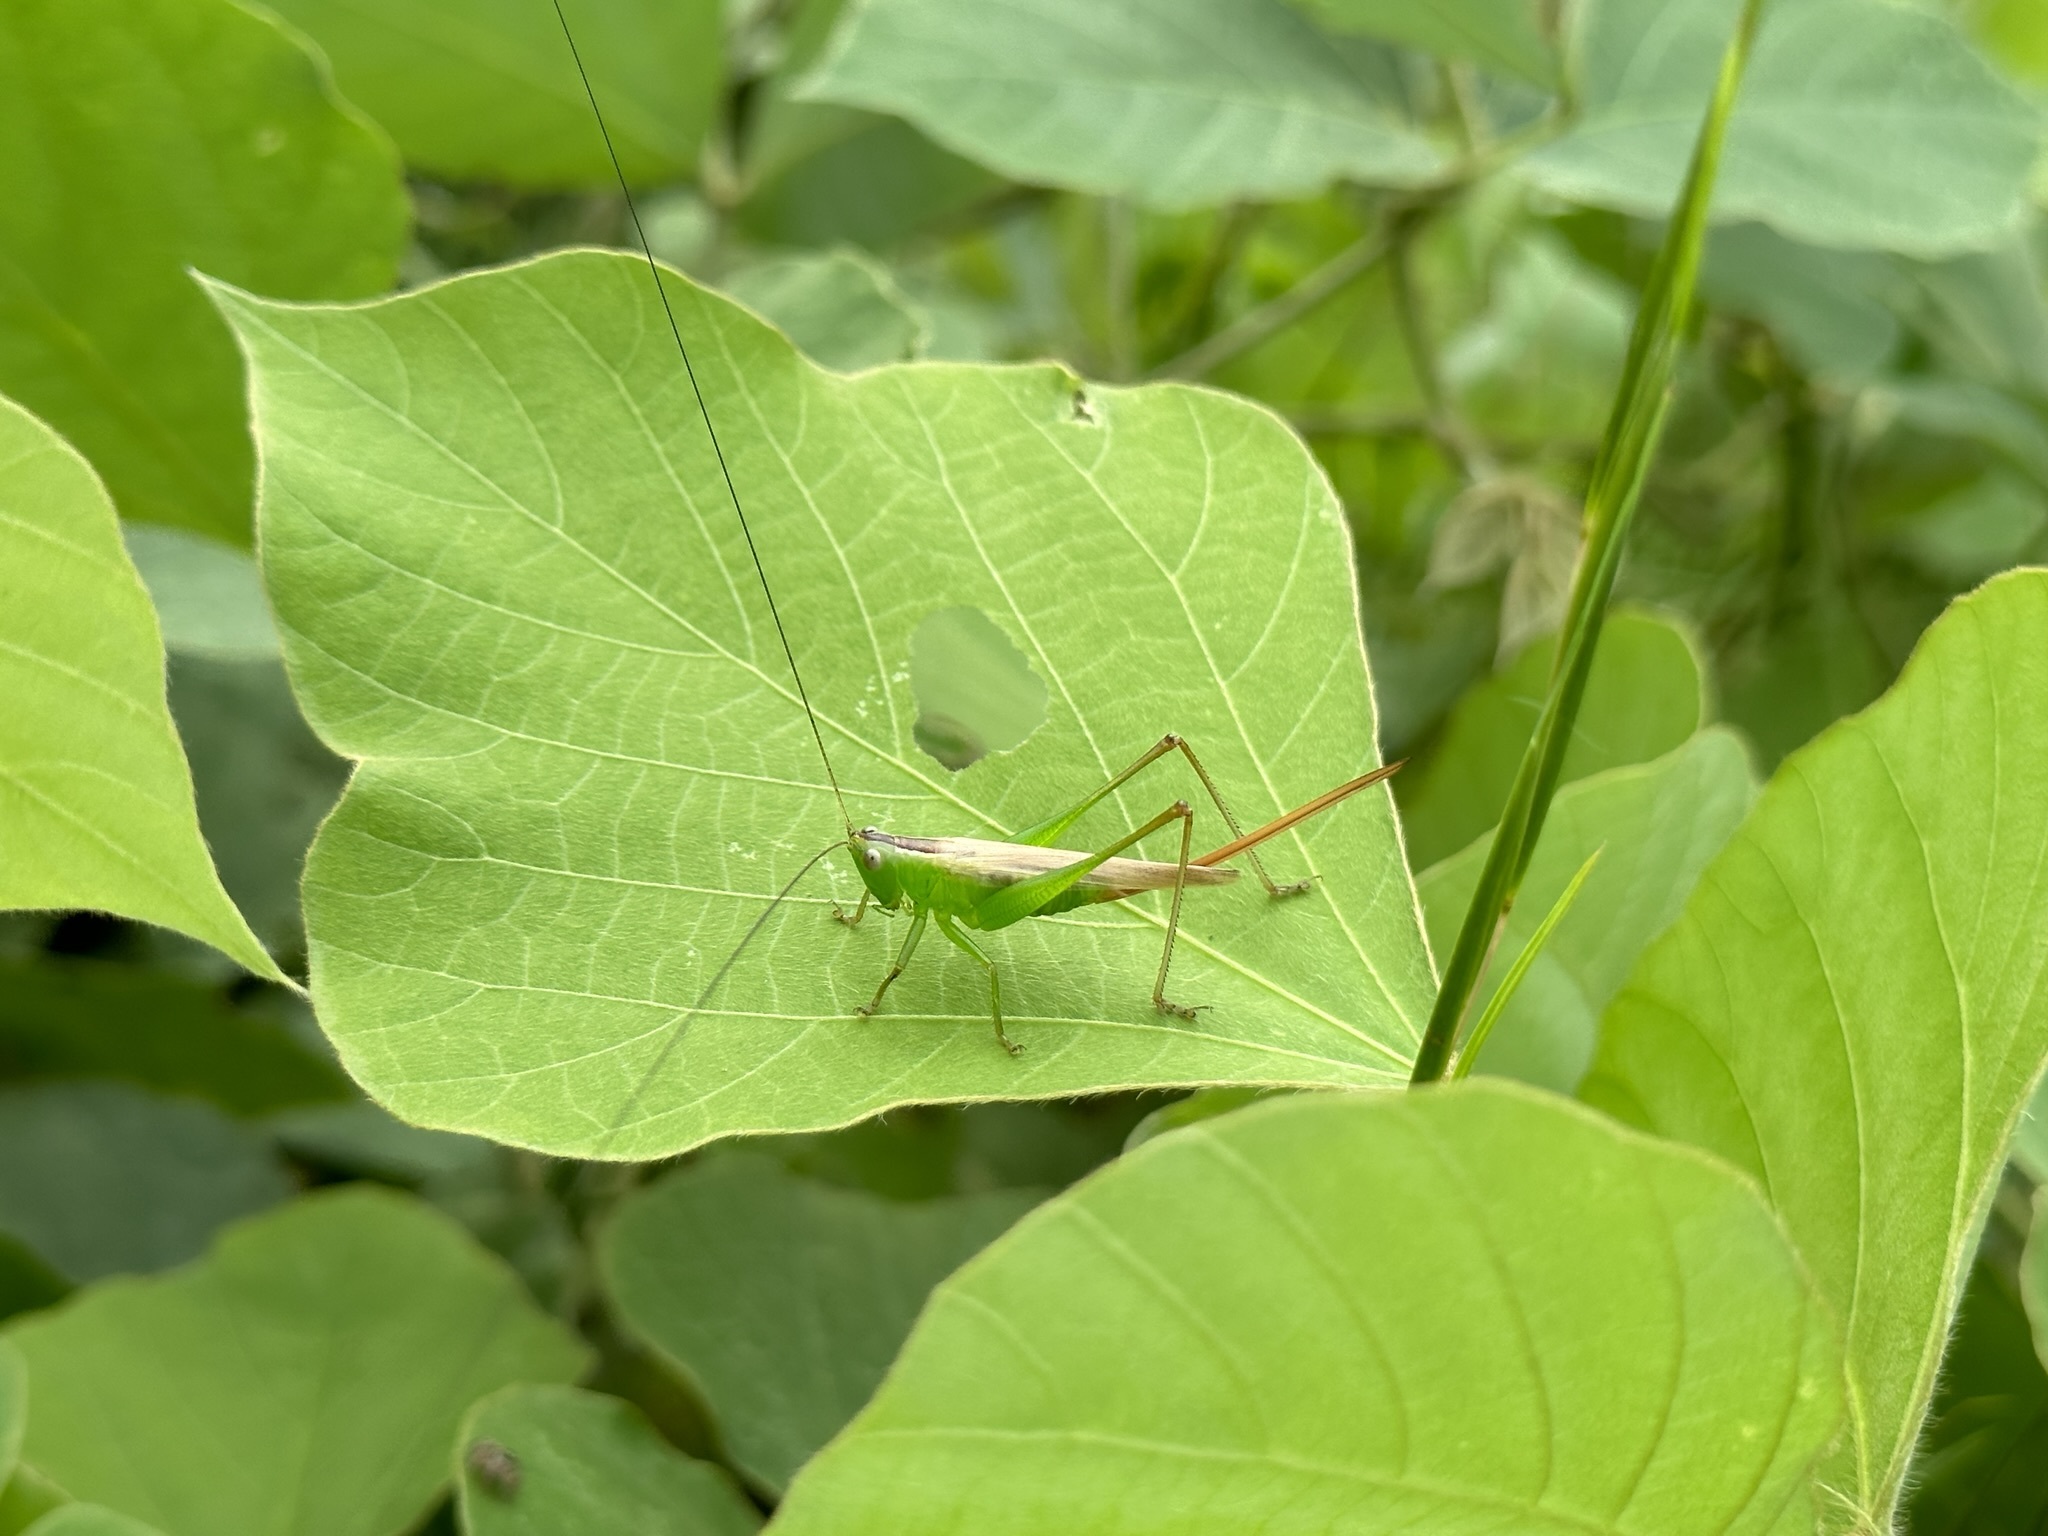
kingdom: Animalia
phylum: Arthropoda
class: Insecta
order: Orthoptera
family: Tettigoniidae
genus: Conocephalus
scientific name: Conocephalus exemptus
